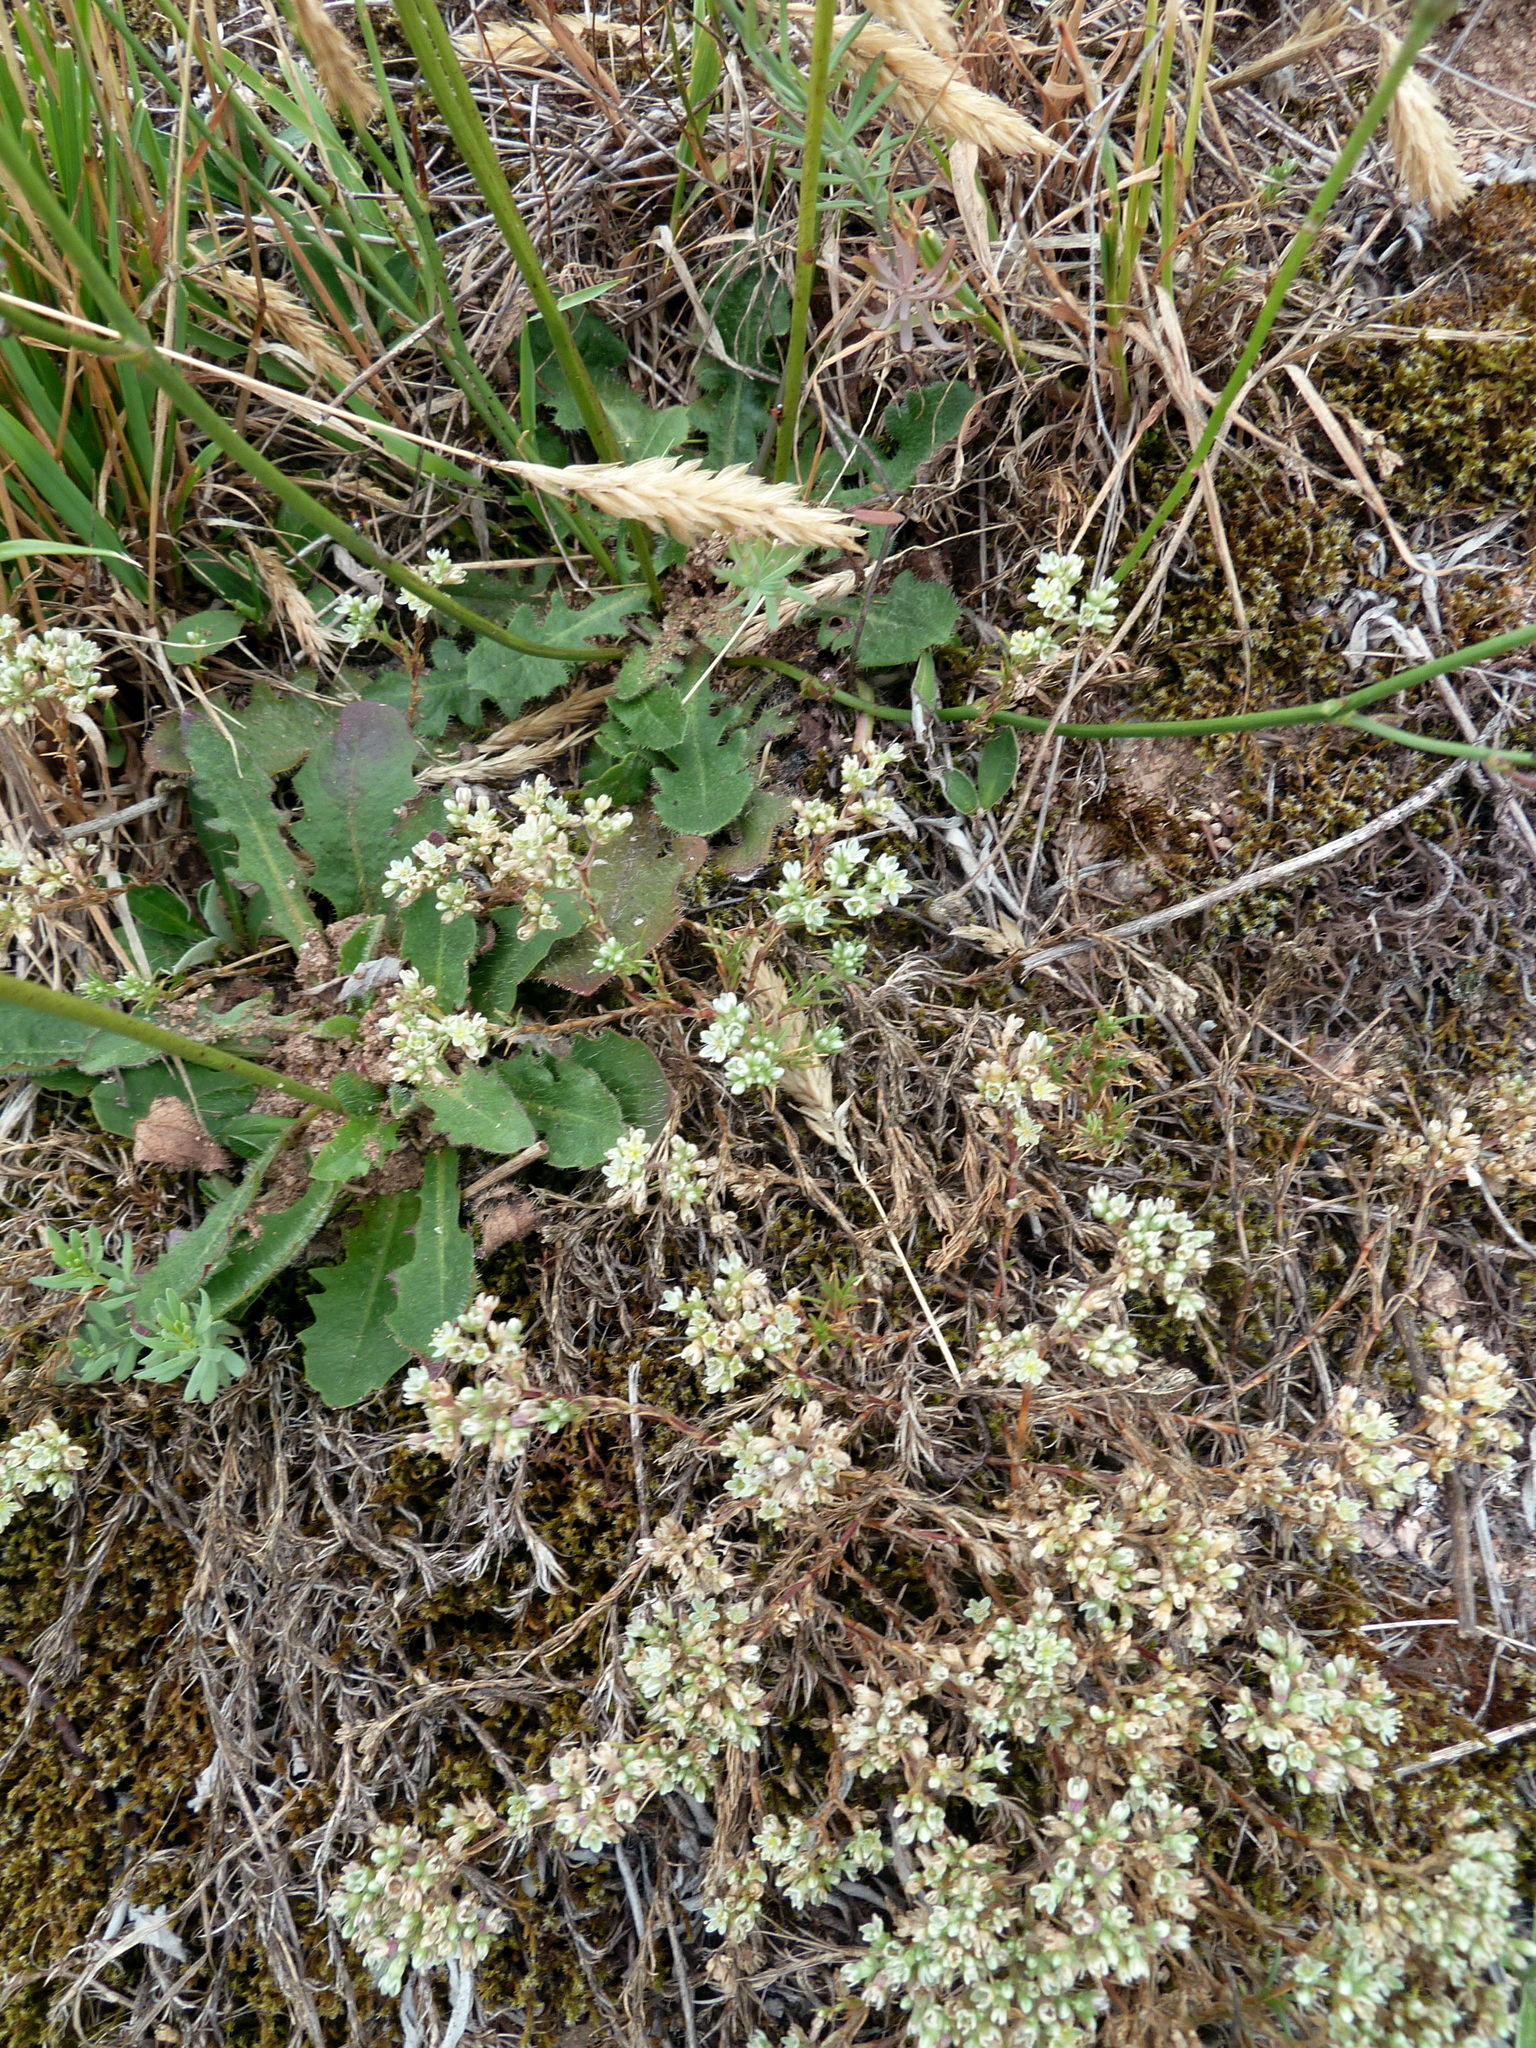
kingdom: Plantae
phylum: Tracheophyta
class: Magnoliopsida
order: Caryophyllales
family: Caryophyllaceae
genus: Scleranthus
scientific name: Scleranthus perennis
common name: Perennial knawel
